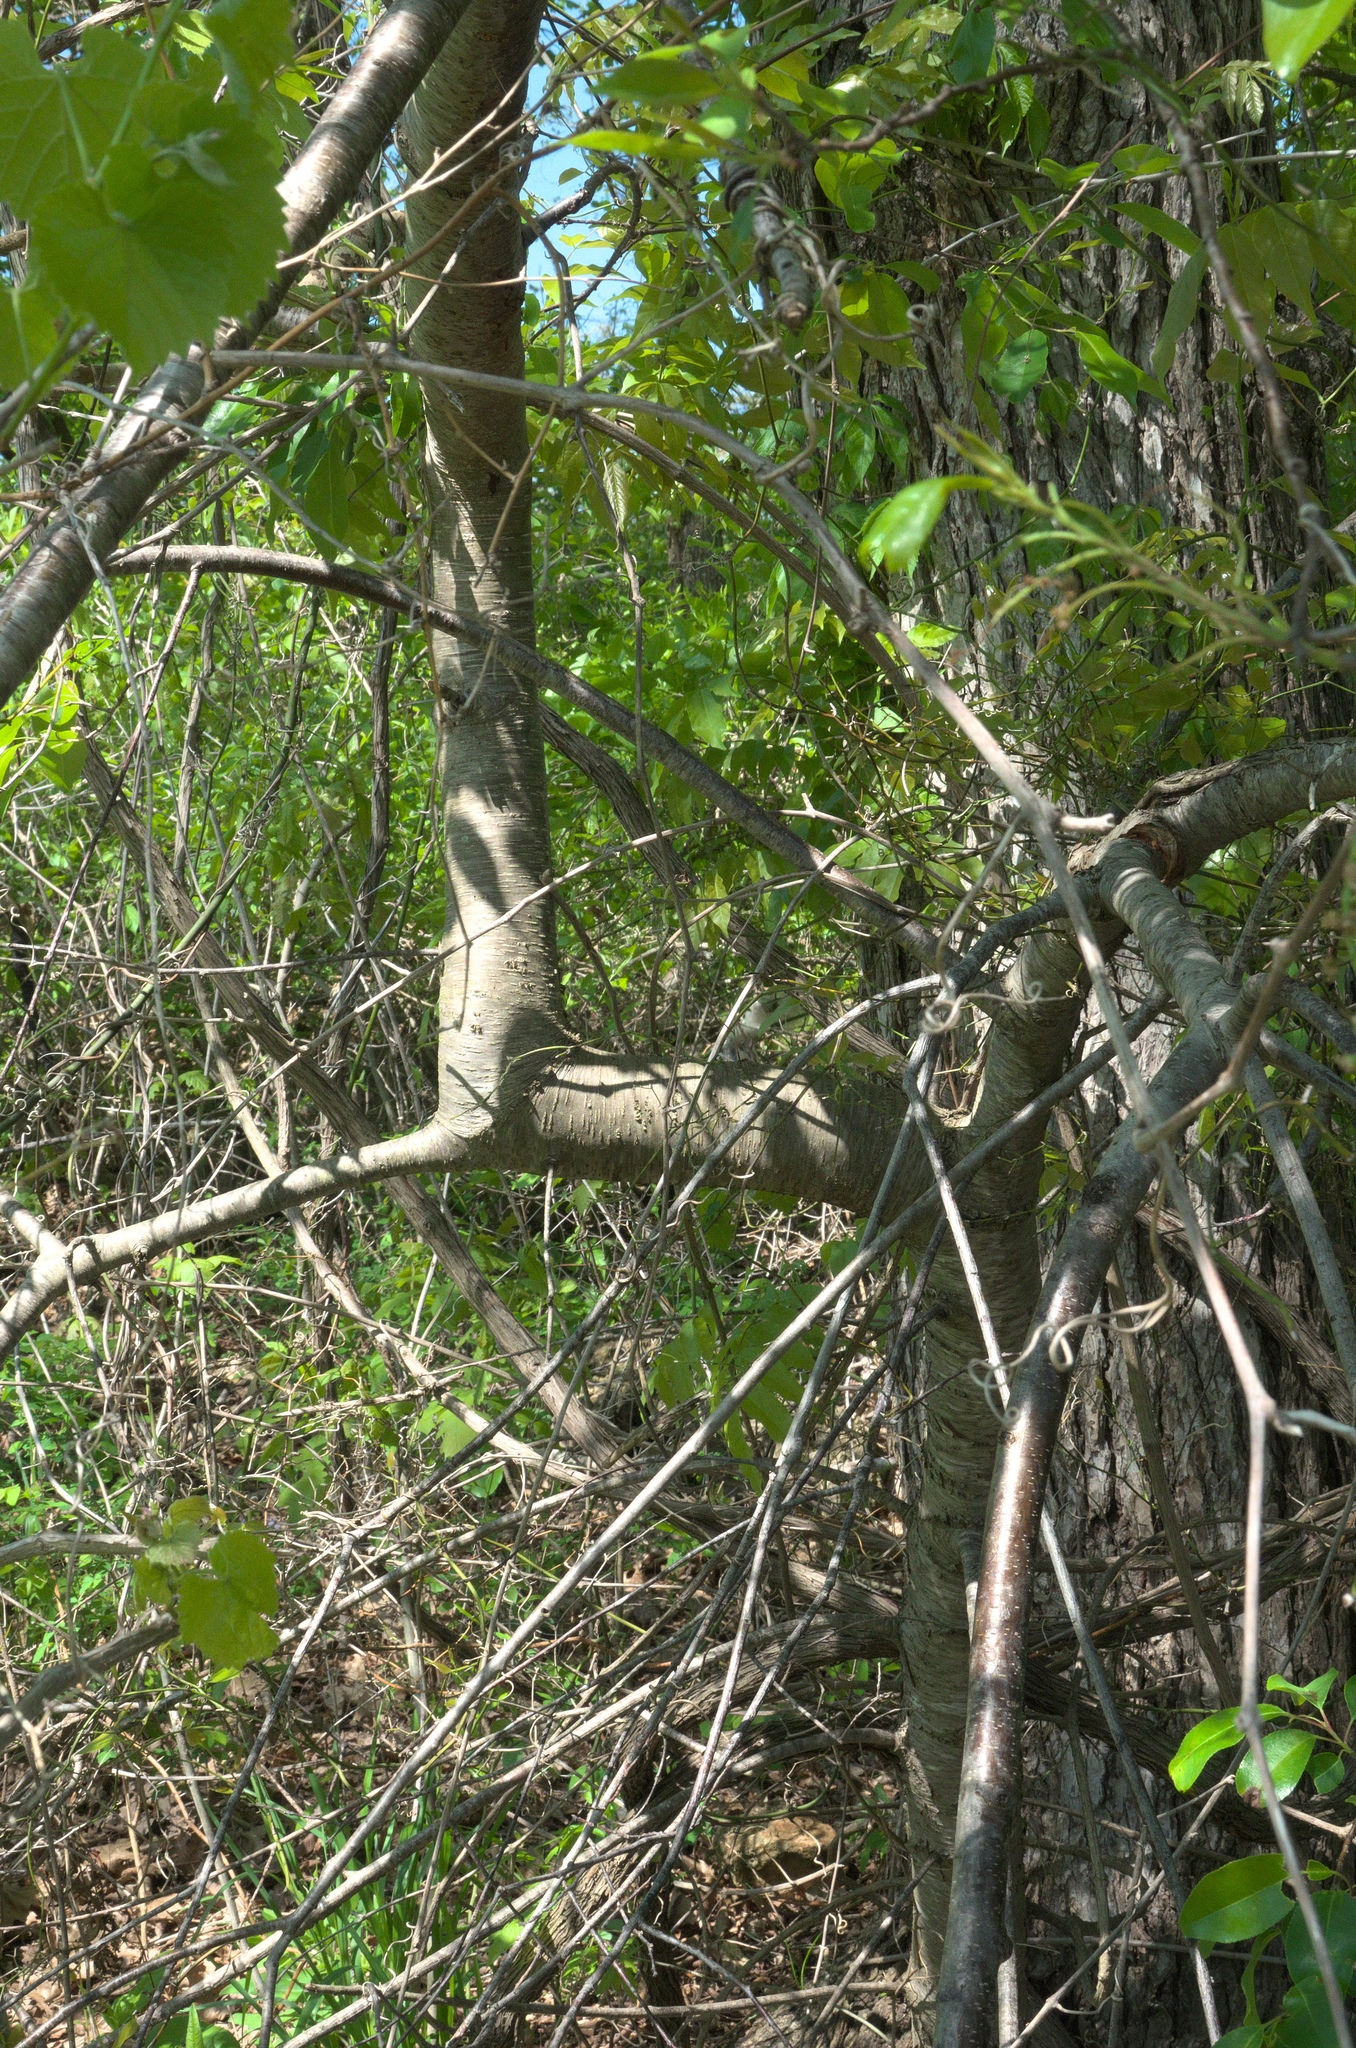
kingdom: Plantae
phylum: Tracheophyta
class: Magnoliopsida
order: Rosales
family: Rosaceae
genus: Prunus
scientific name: Prunus serotina
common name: Black cherry
